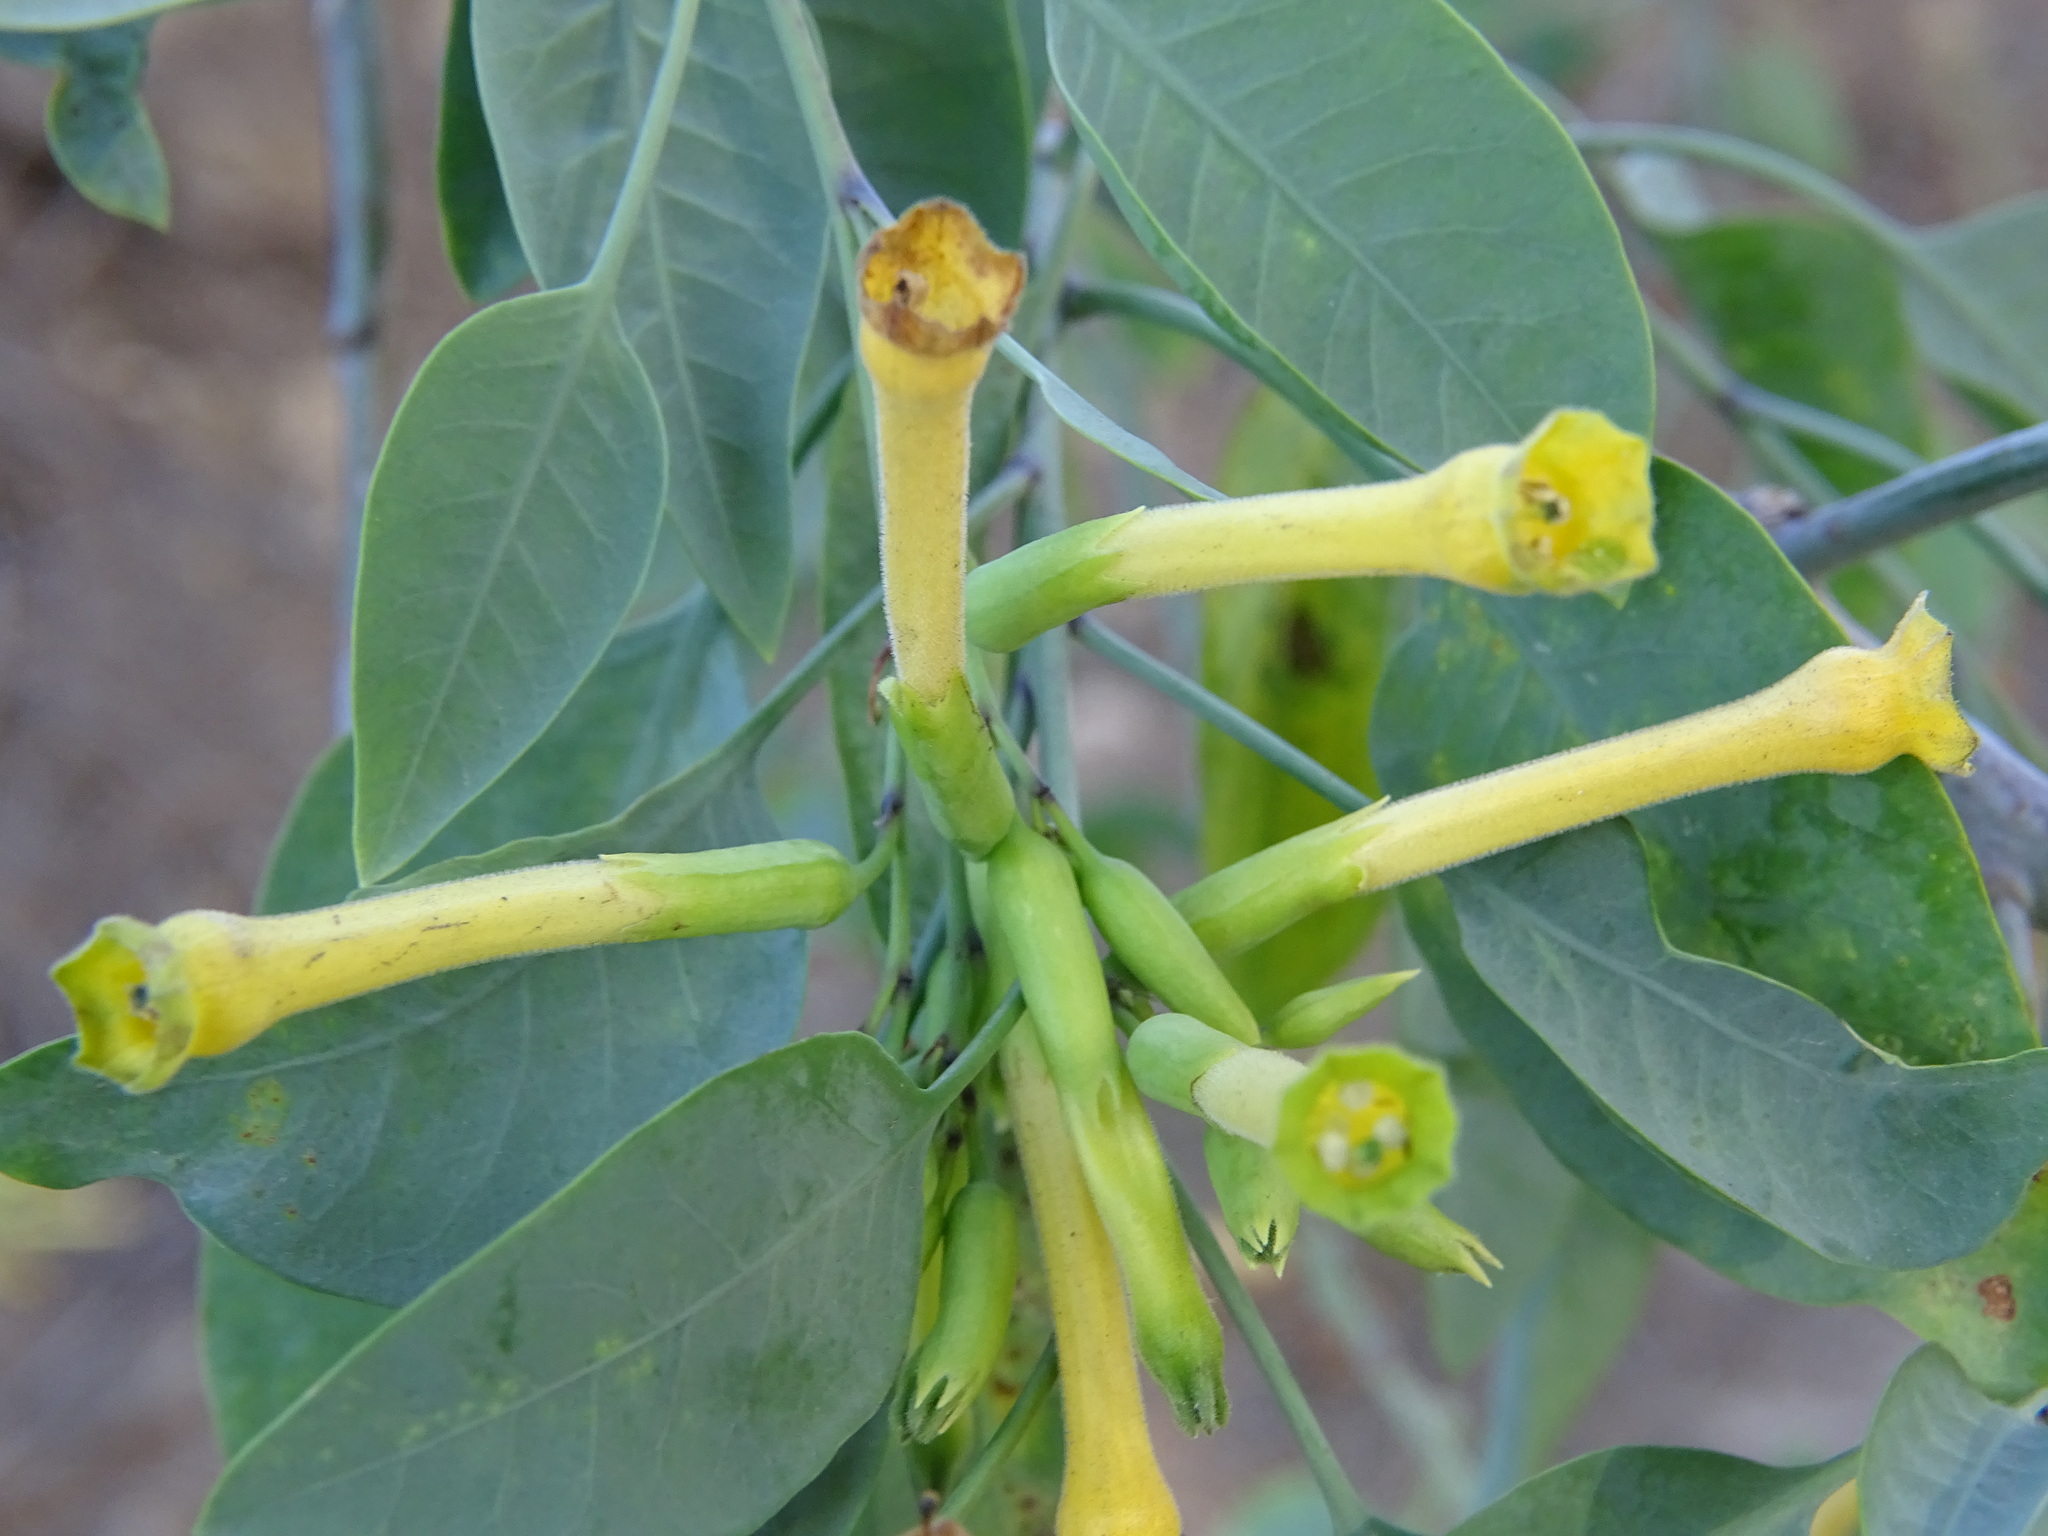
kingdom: Plantae
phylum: Tracheophyta
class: Magnoliopsida
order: Solanales
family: Solanaceae
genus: Nicotiana
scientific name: Nicotiana glauca
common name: Tree tobacco
